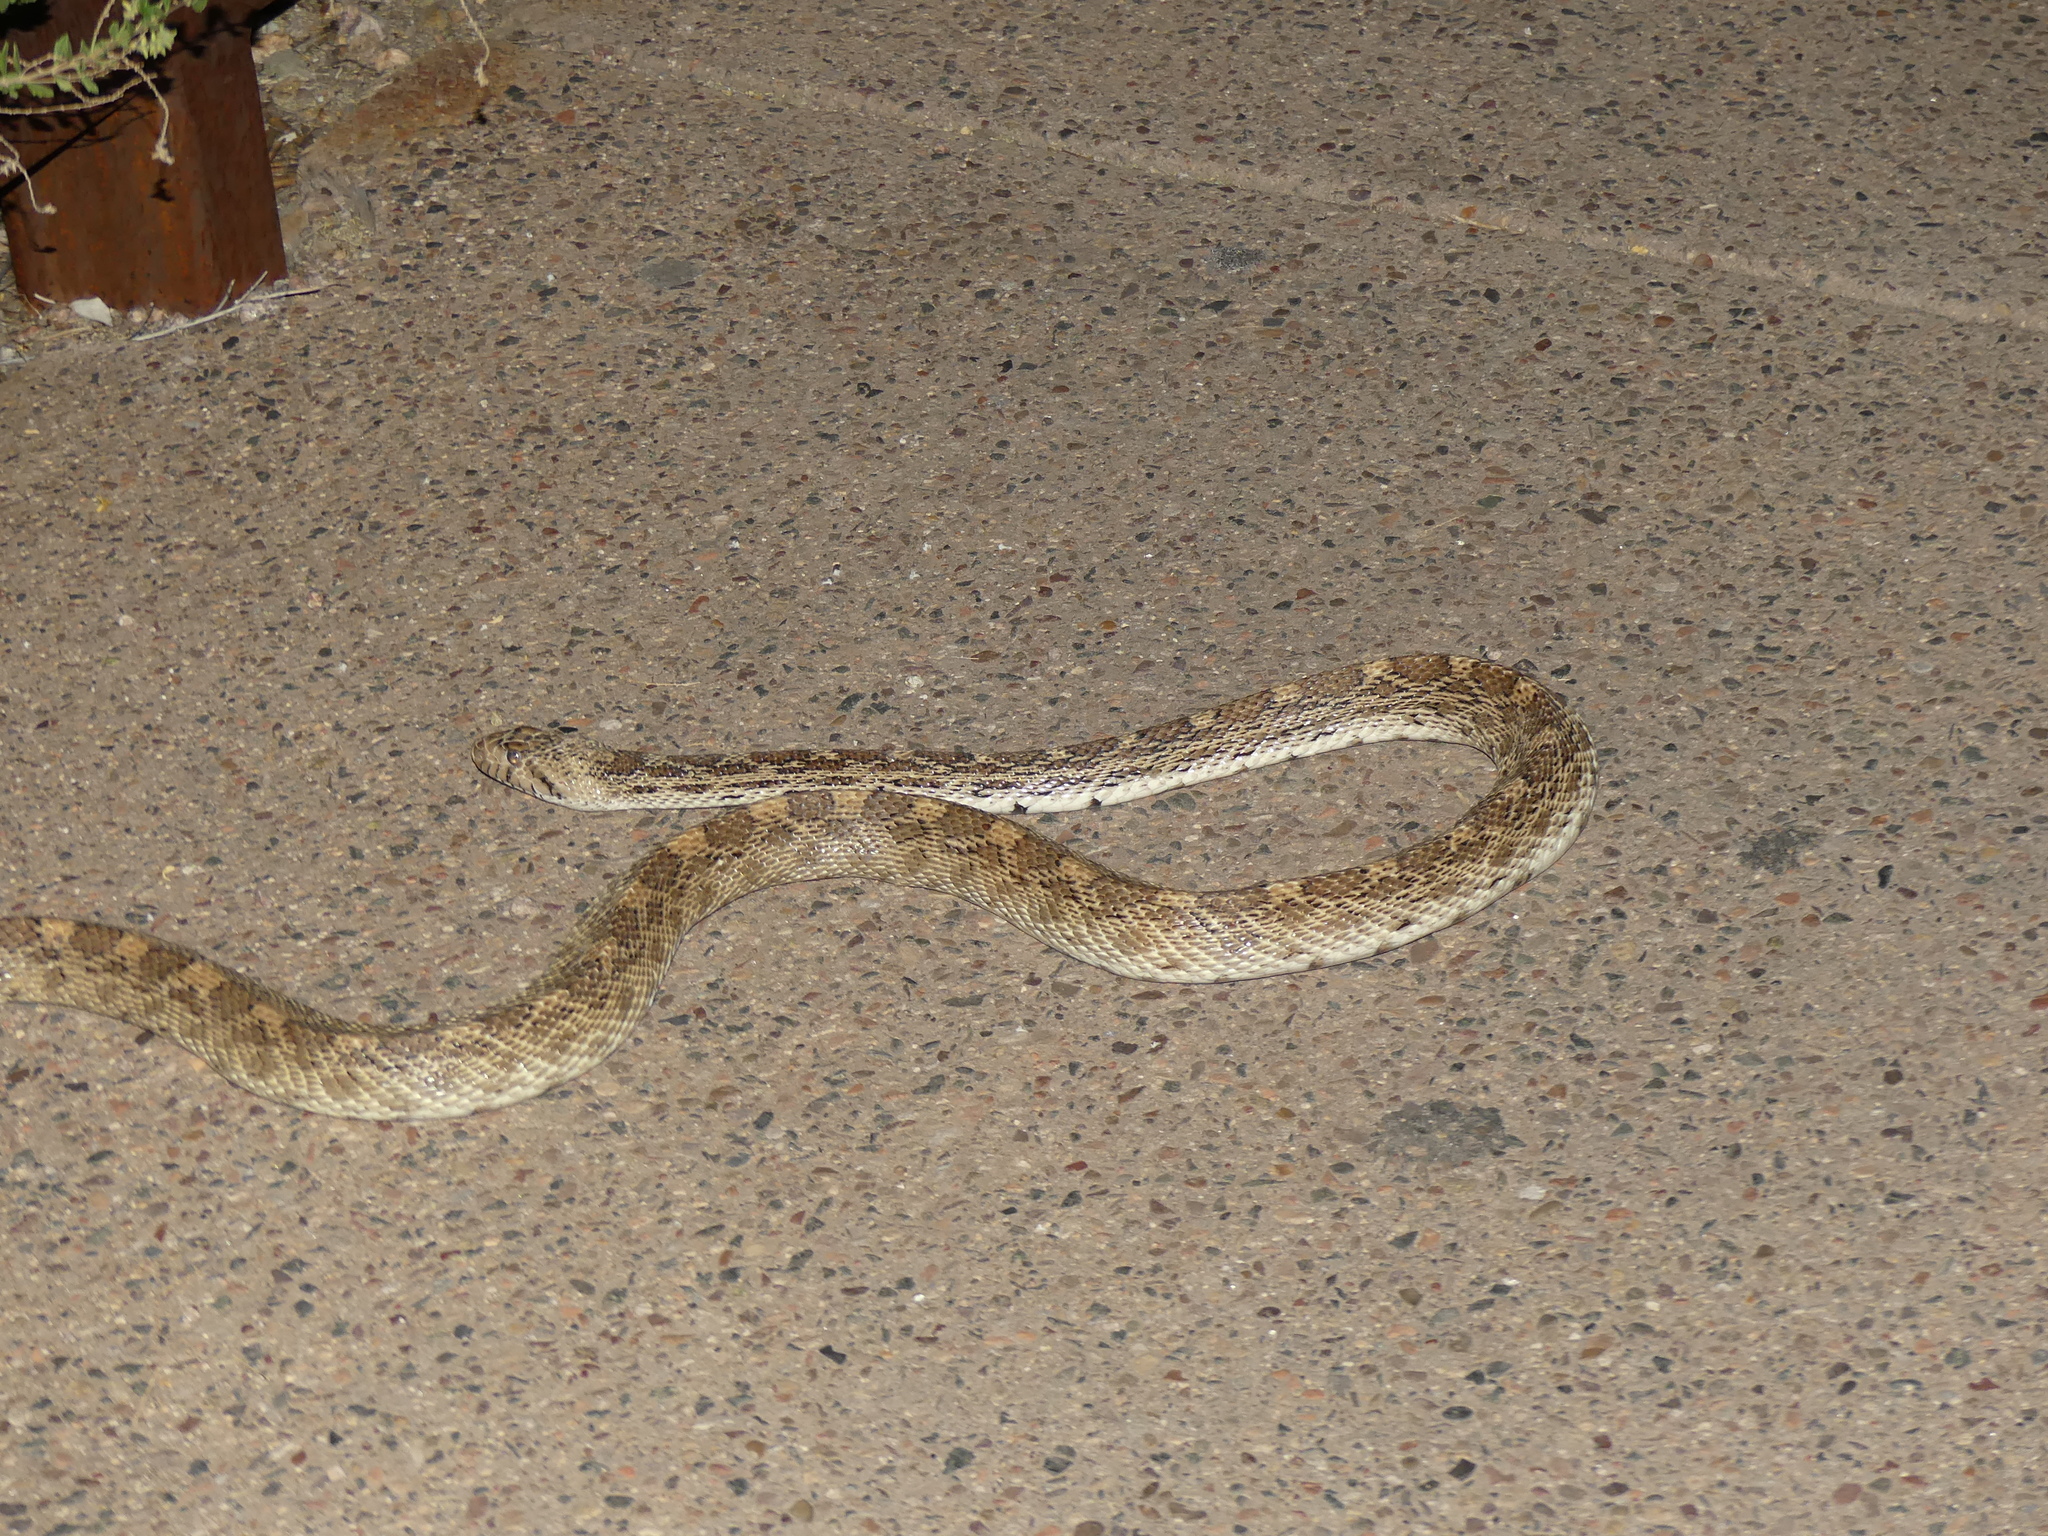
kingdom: Animalia
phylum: Chordata
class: Squamata
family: Colubridae
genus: Pituophis
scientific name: Pituophis catenifer
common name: Gopher snake
